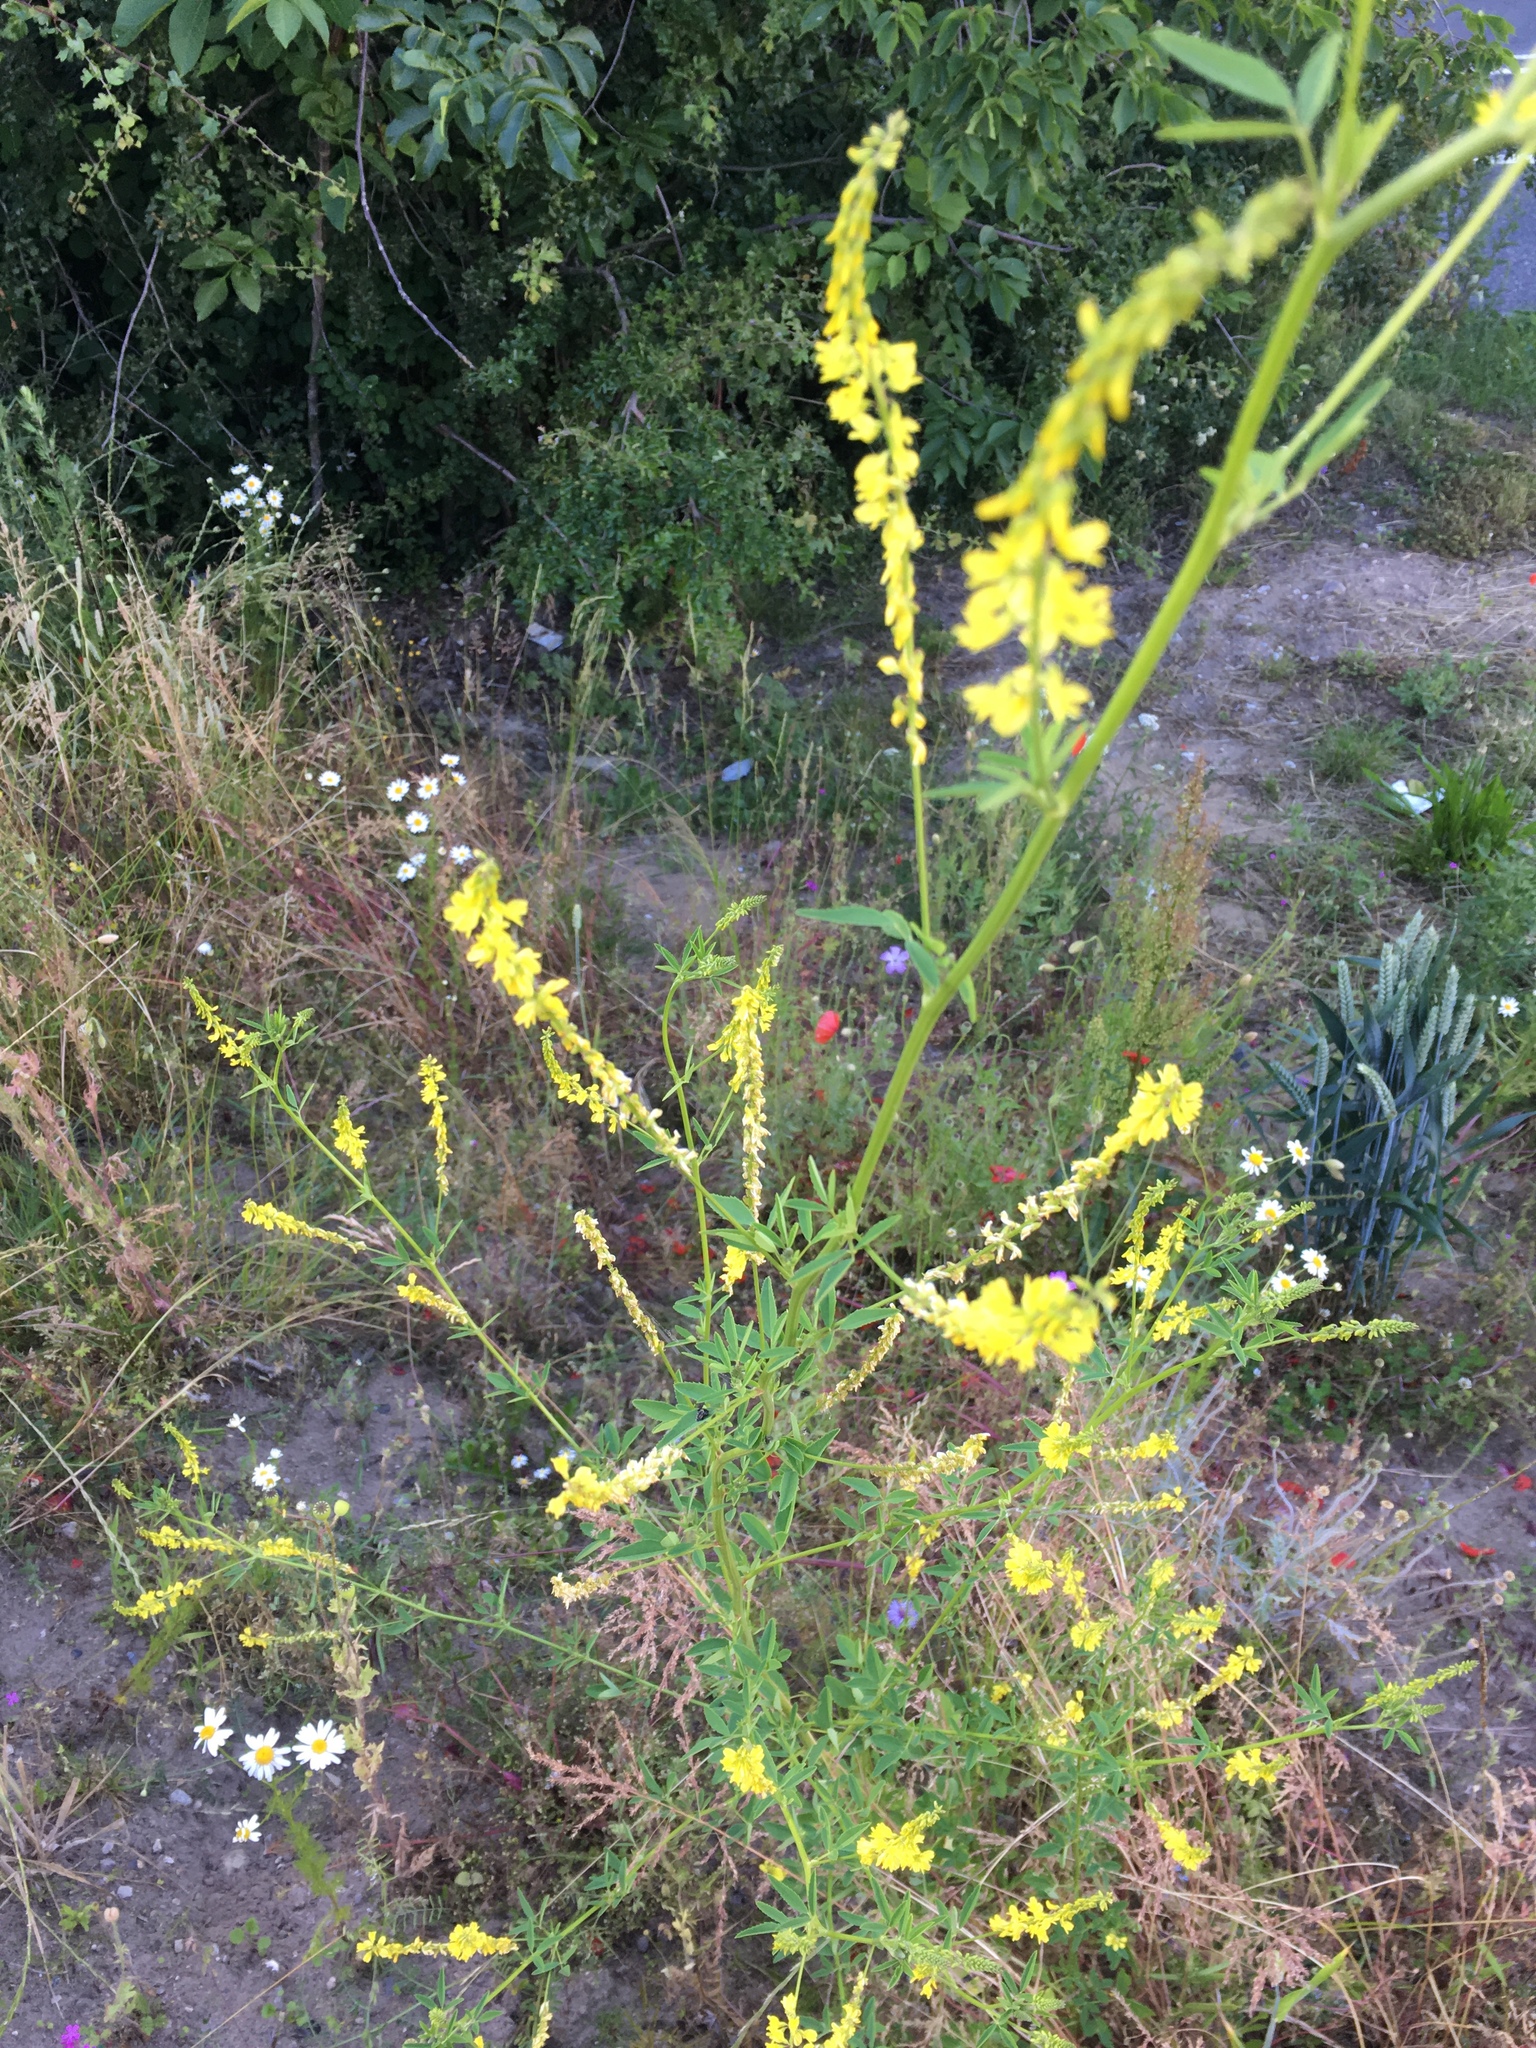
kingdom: Plantae
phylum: Tracheophyta
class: Magnoliopsida
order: Fabales
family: Fabaceae
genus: Melilotus
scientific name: Melilotus officinalis
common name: Sweetclover
